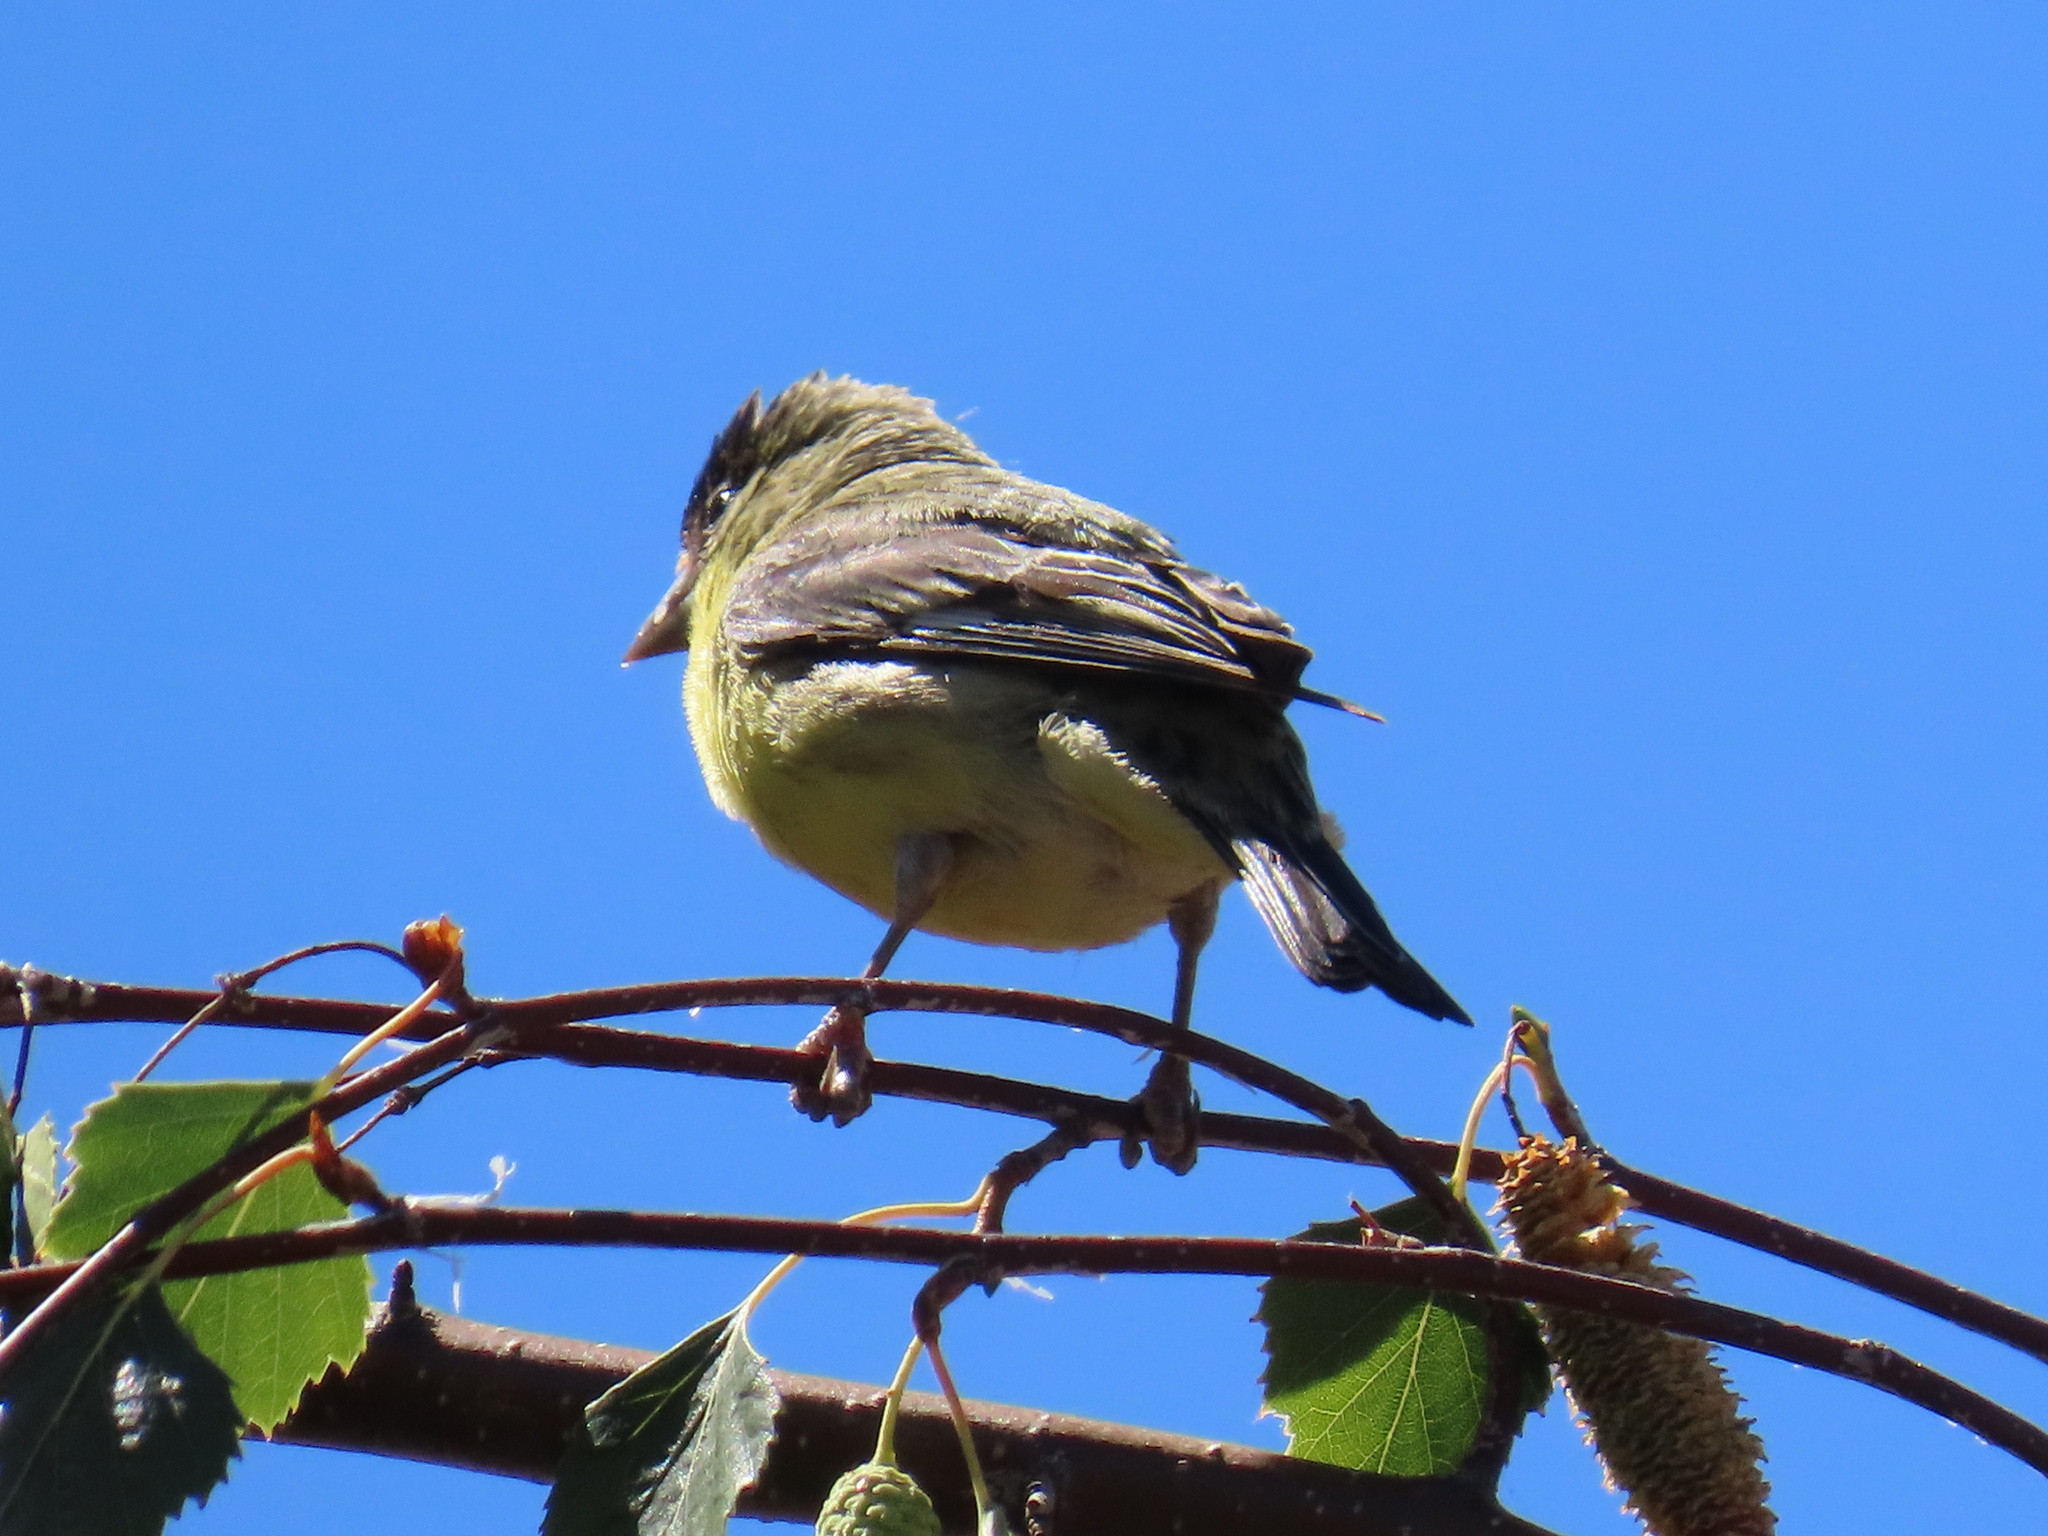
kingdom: Animalia
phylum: Chordata
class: Aves
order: Passeriformes
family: Fringillidae
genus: Spinus
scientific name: Spinus psaltria
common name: Lesser goldfinch
